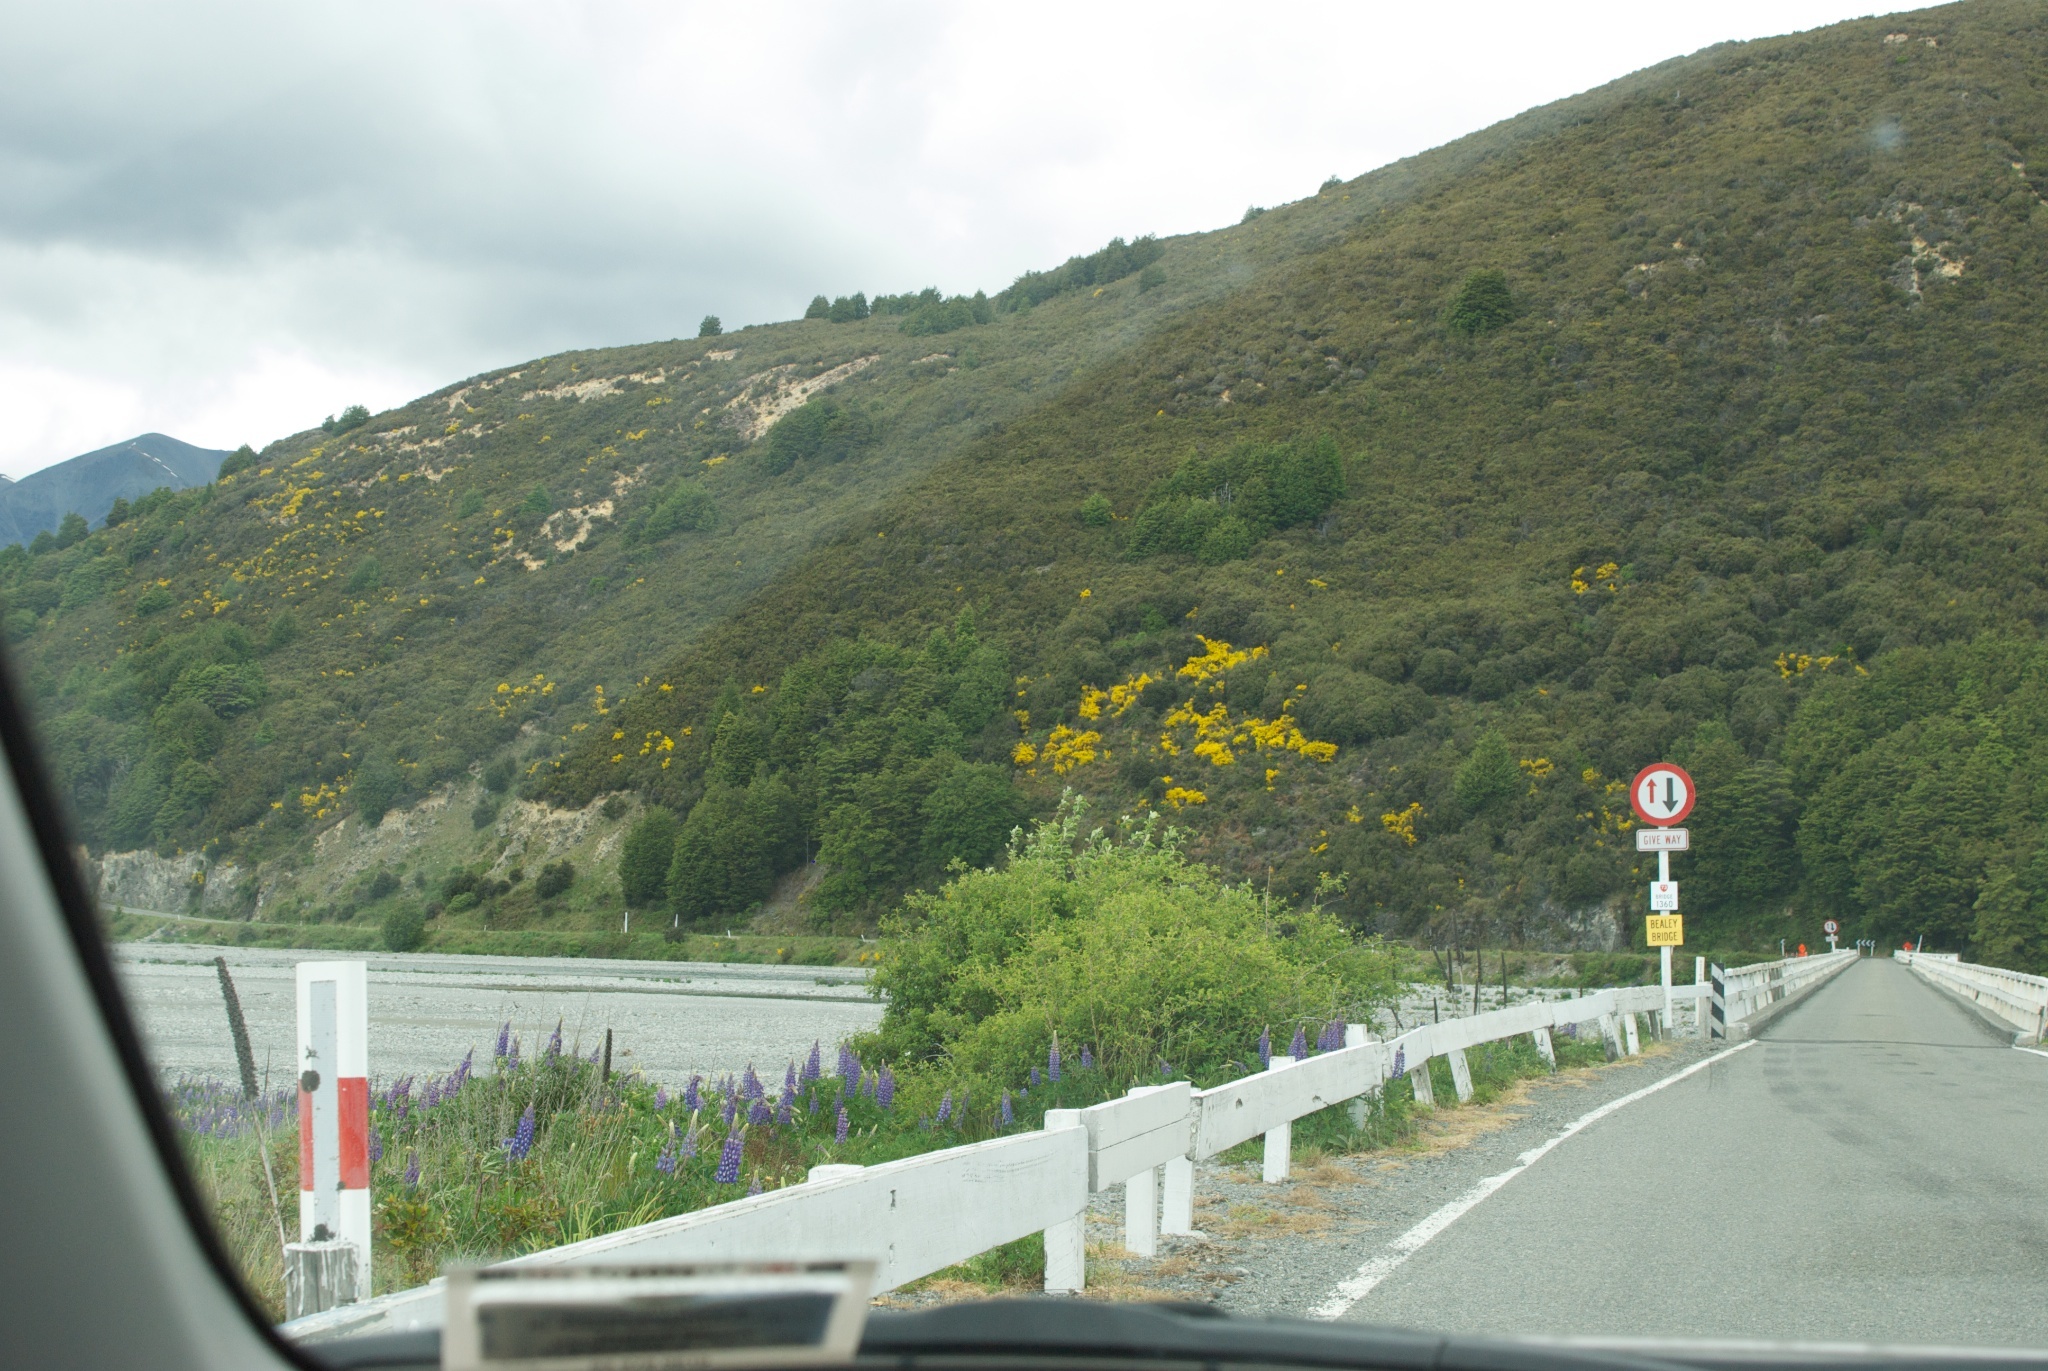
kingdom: Plantae
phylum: Tracheophyta
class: Magnoliopsida
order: Fabales
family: Fabaceae
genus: Cytisus
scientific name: Cytisus scoparius
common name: Scotch broom
